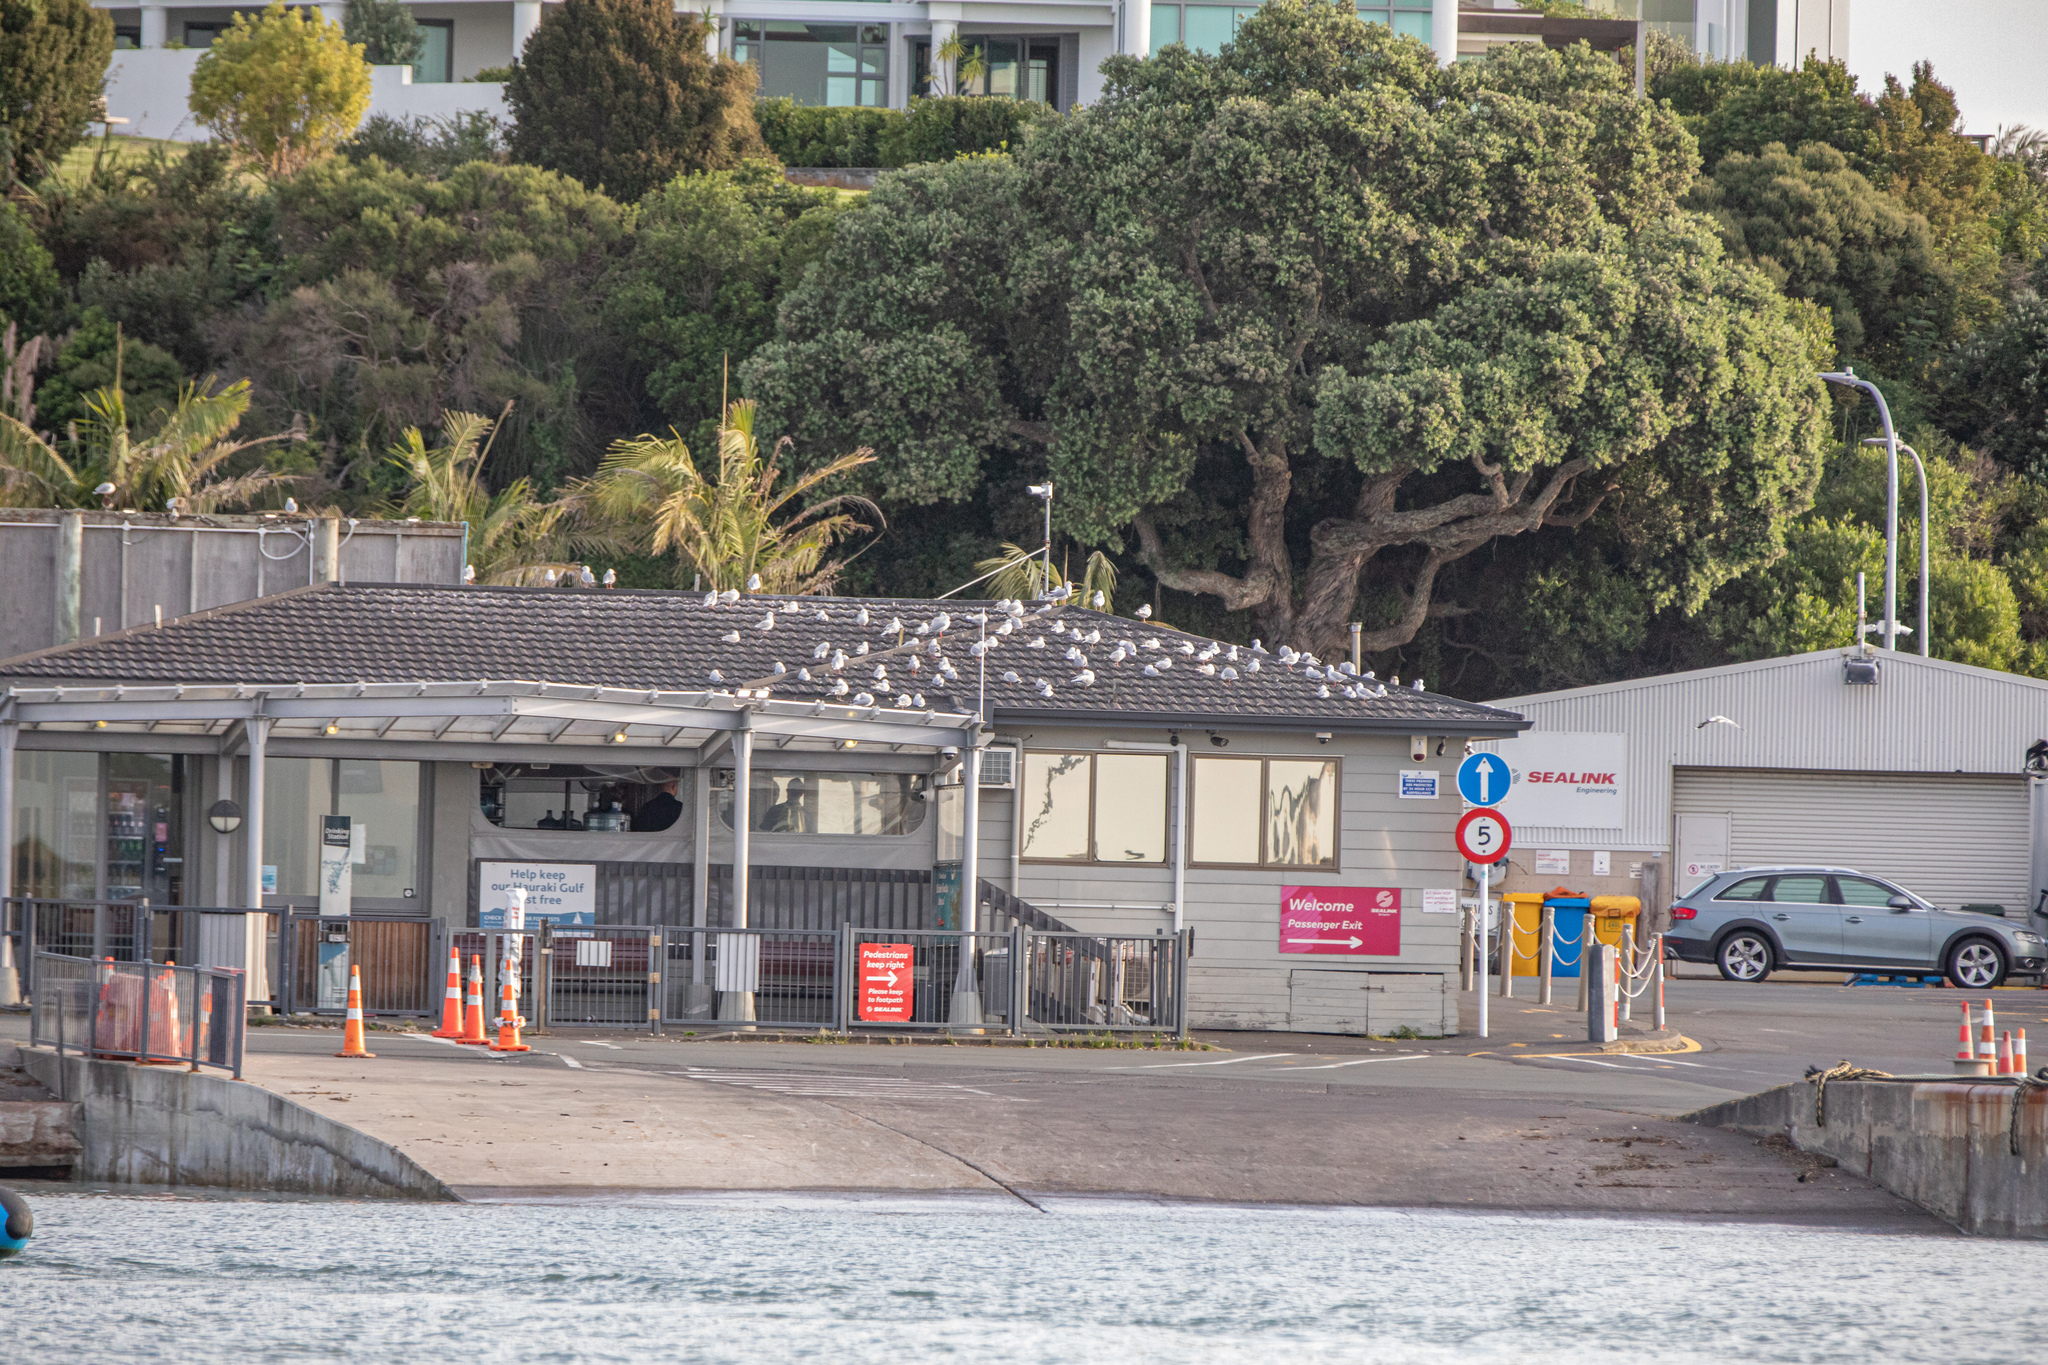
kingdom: Animalia
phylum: Chordata
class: Aves
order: Charadriiformes
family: Laridae
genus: Chroicocephalus
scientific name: Chroicocephalus novaehollandiae
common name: Silver gull
